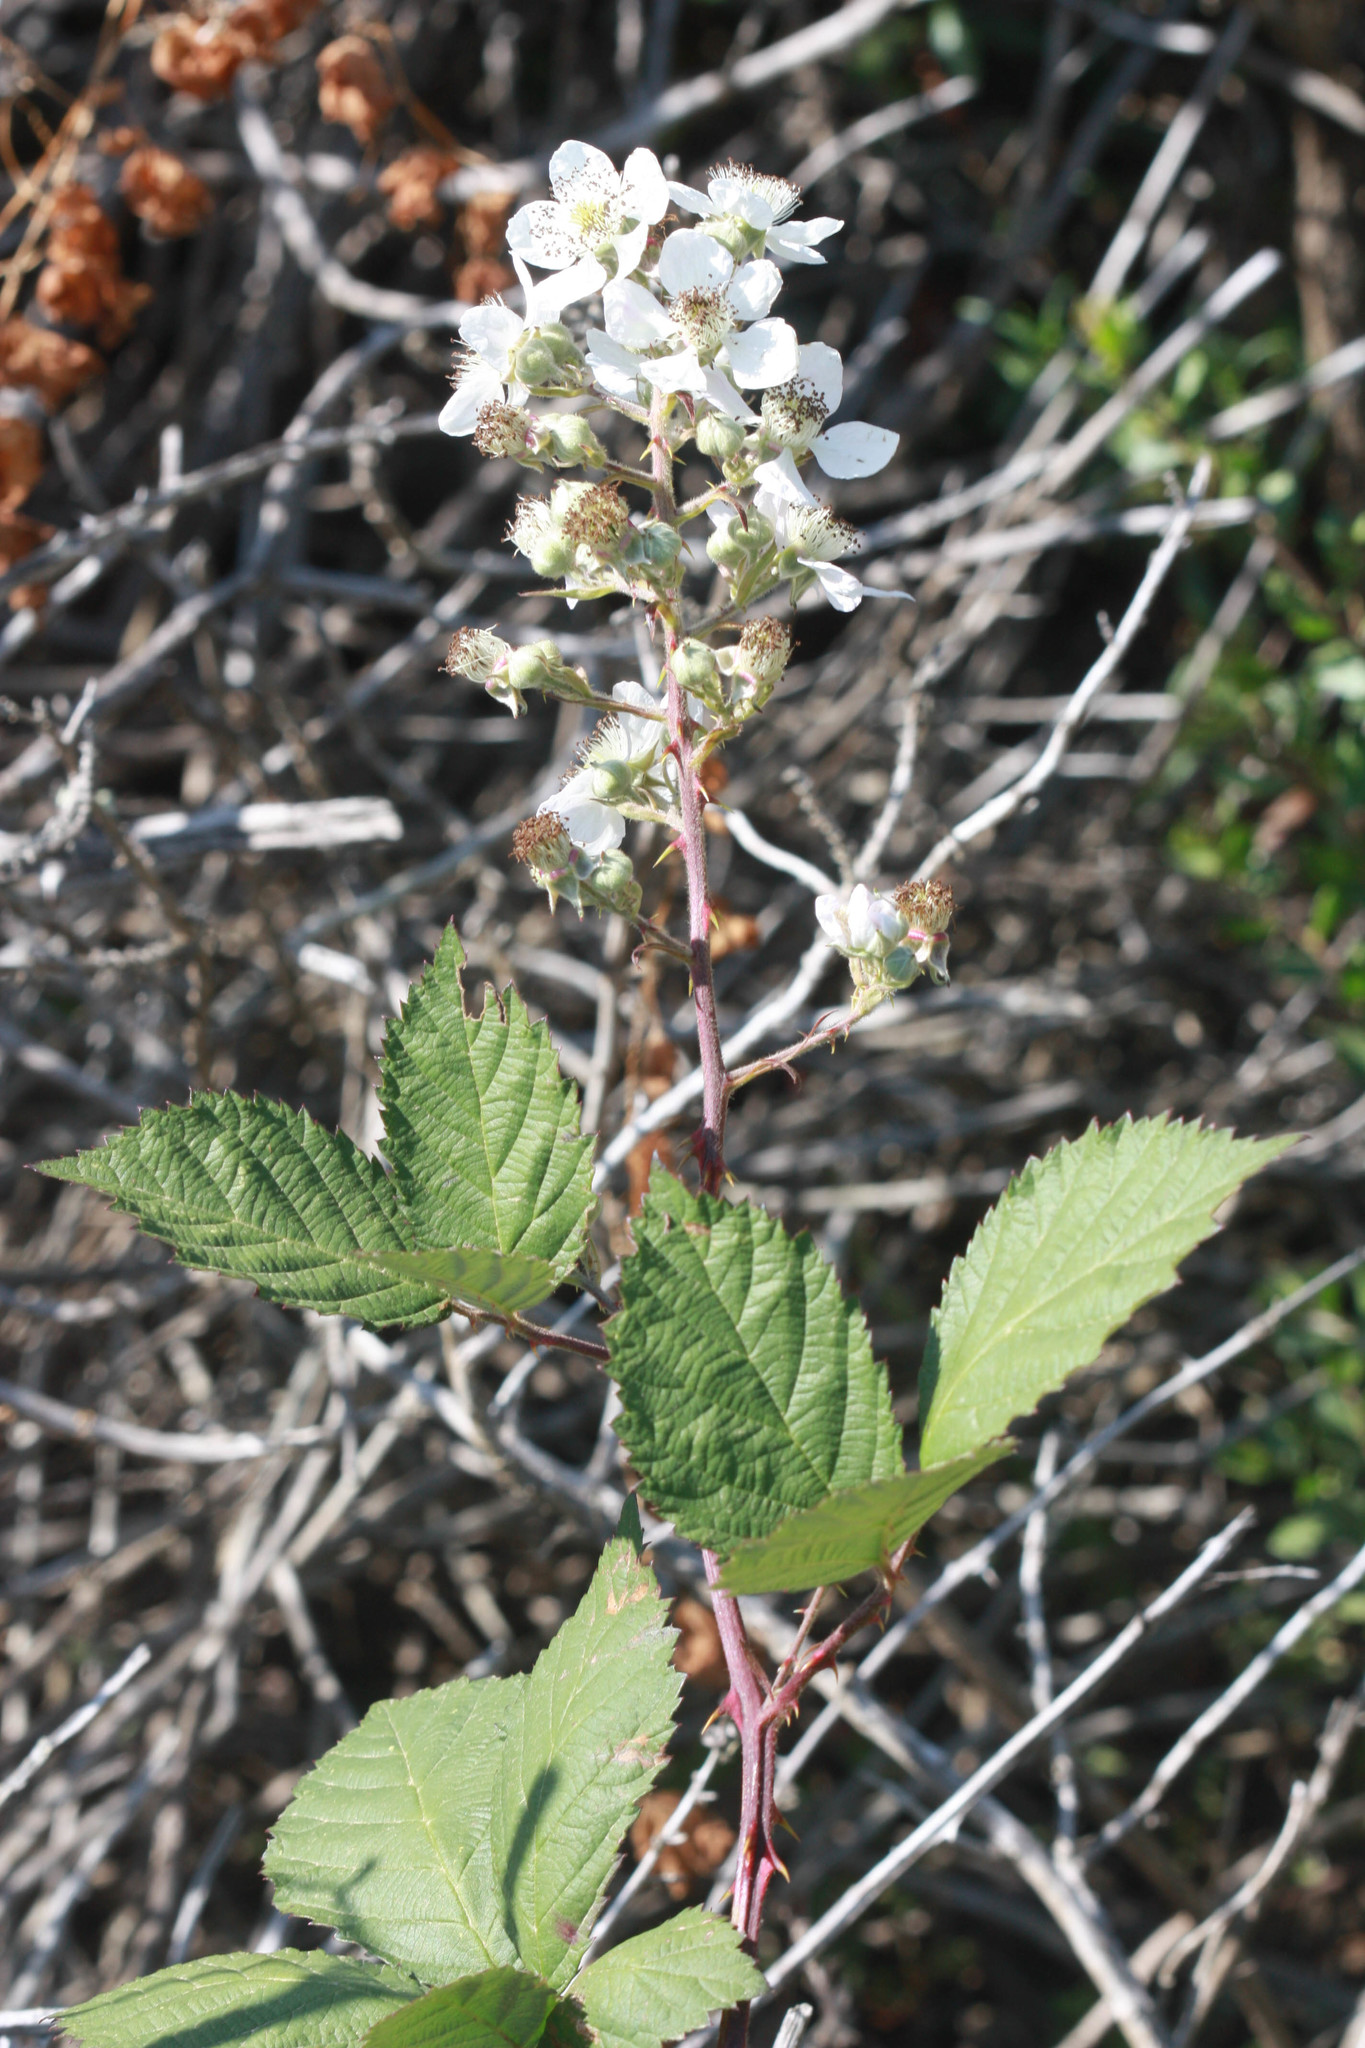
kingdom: Plantae
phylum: Tracheophyta
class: Magnoliopsida
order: Rosales
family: Rosaceae
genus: Rubus
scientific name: Rubus armeniacus
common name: Himalayan blackberry
